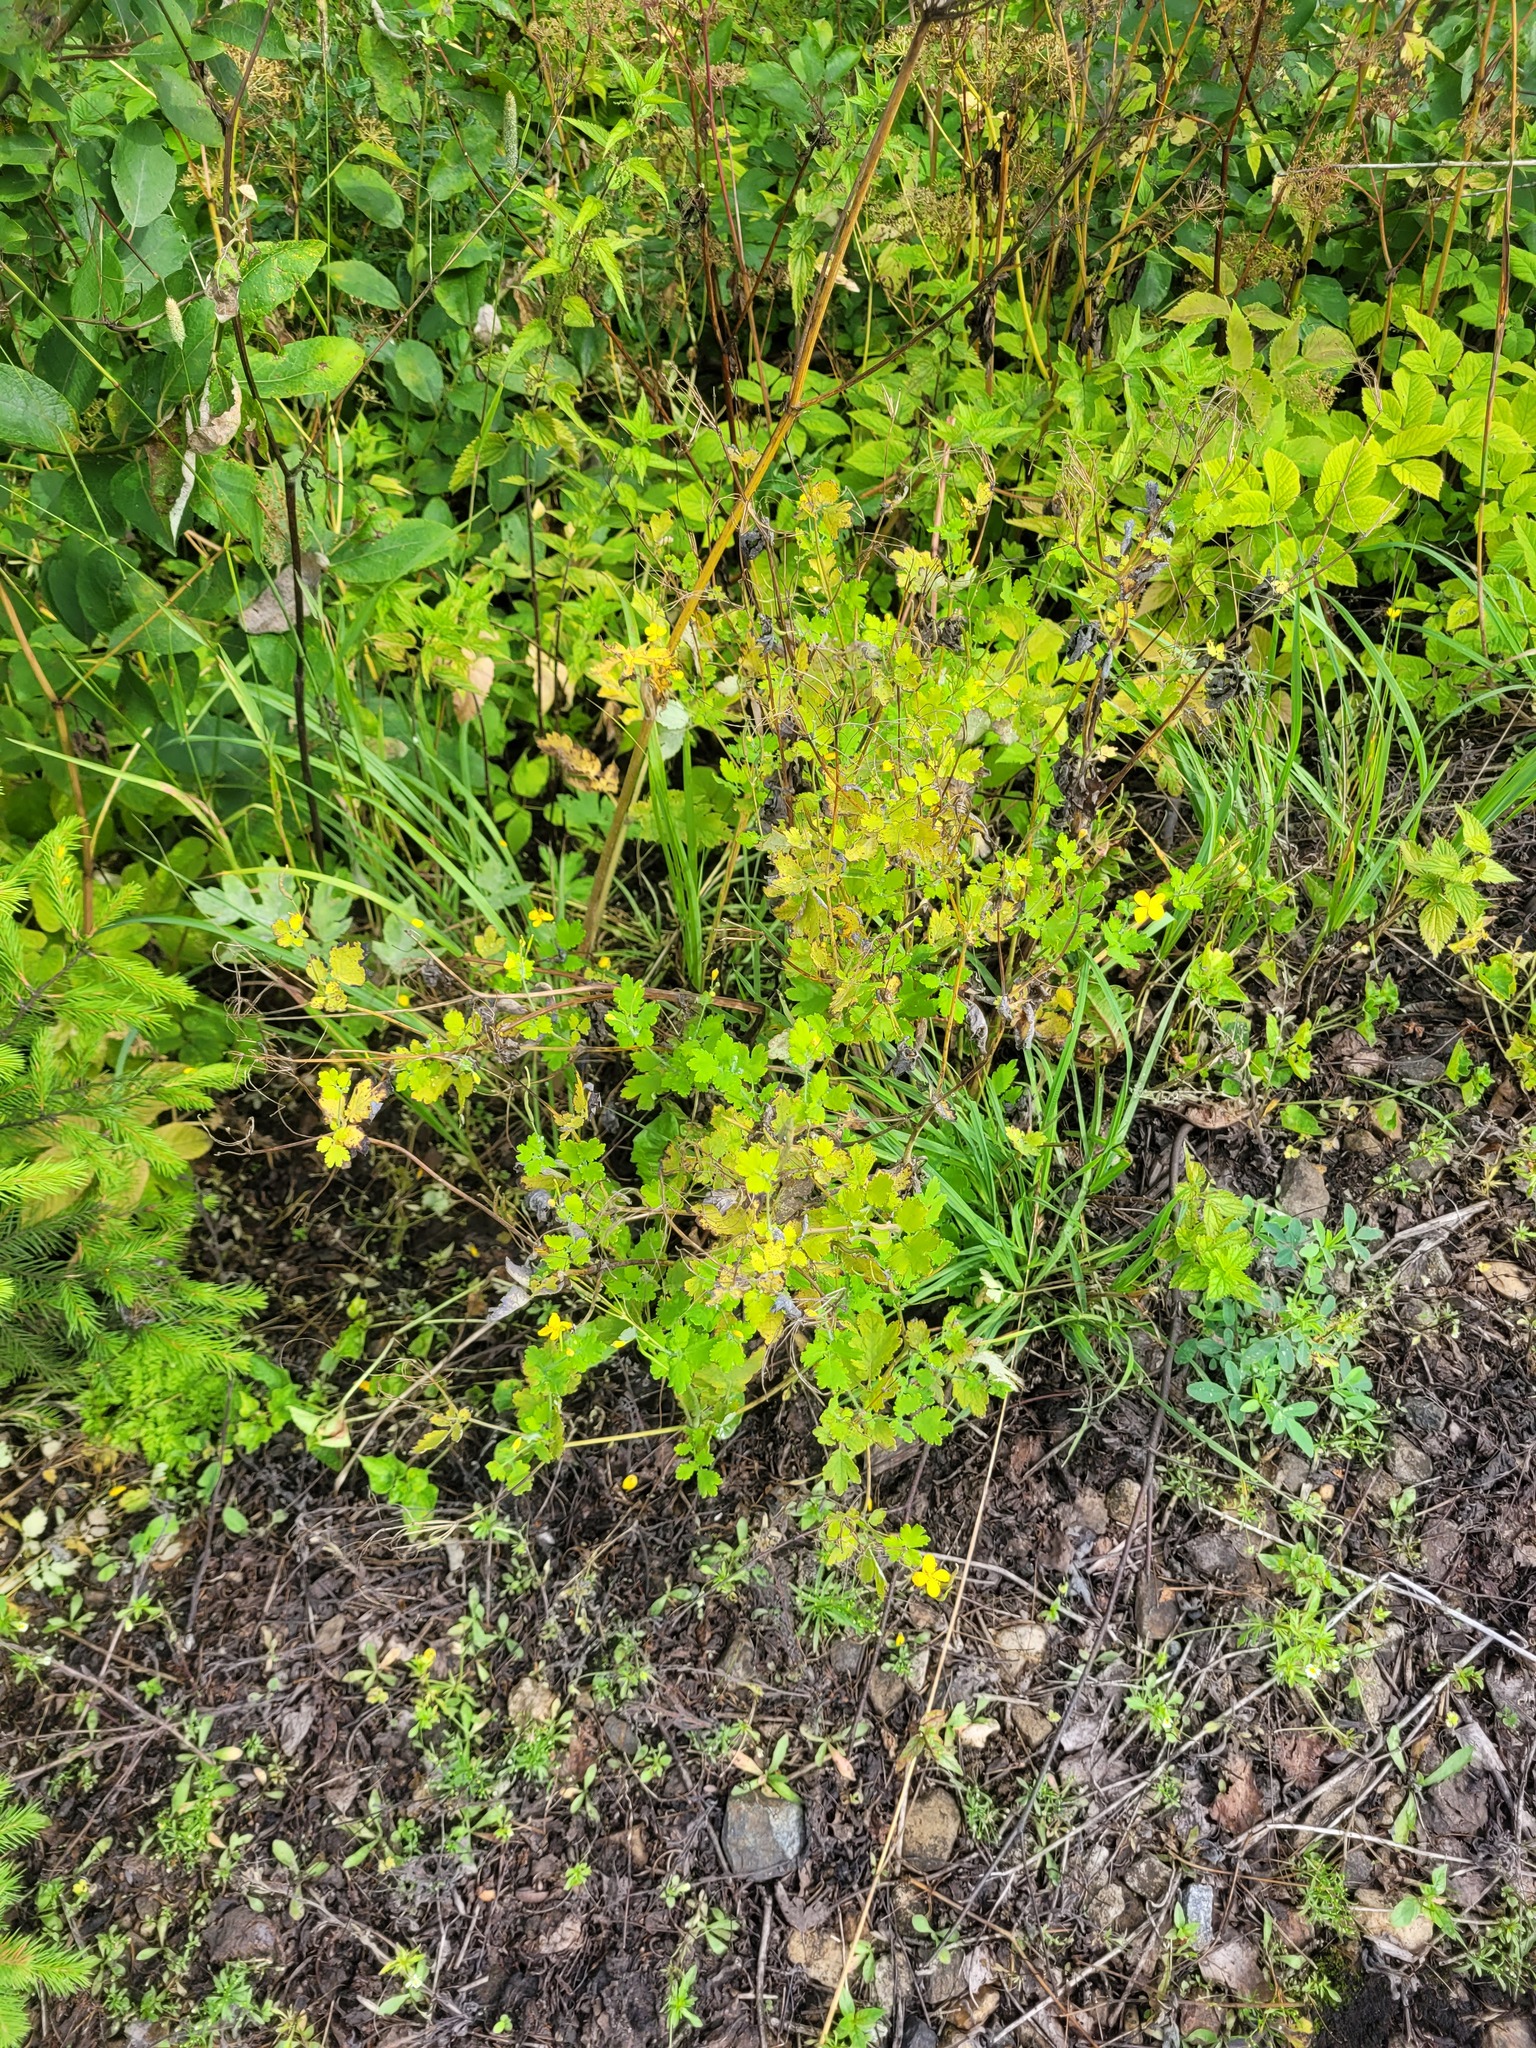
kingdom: Plantae
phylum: Tracheophyta
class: Magnoliopsida
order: Ranunculales
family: Papaveraceae
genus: Chelidonium
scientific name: Chelidonium majus
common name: Greater celandine
